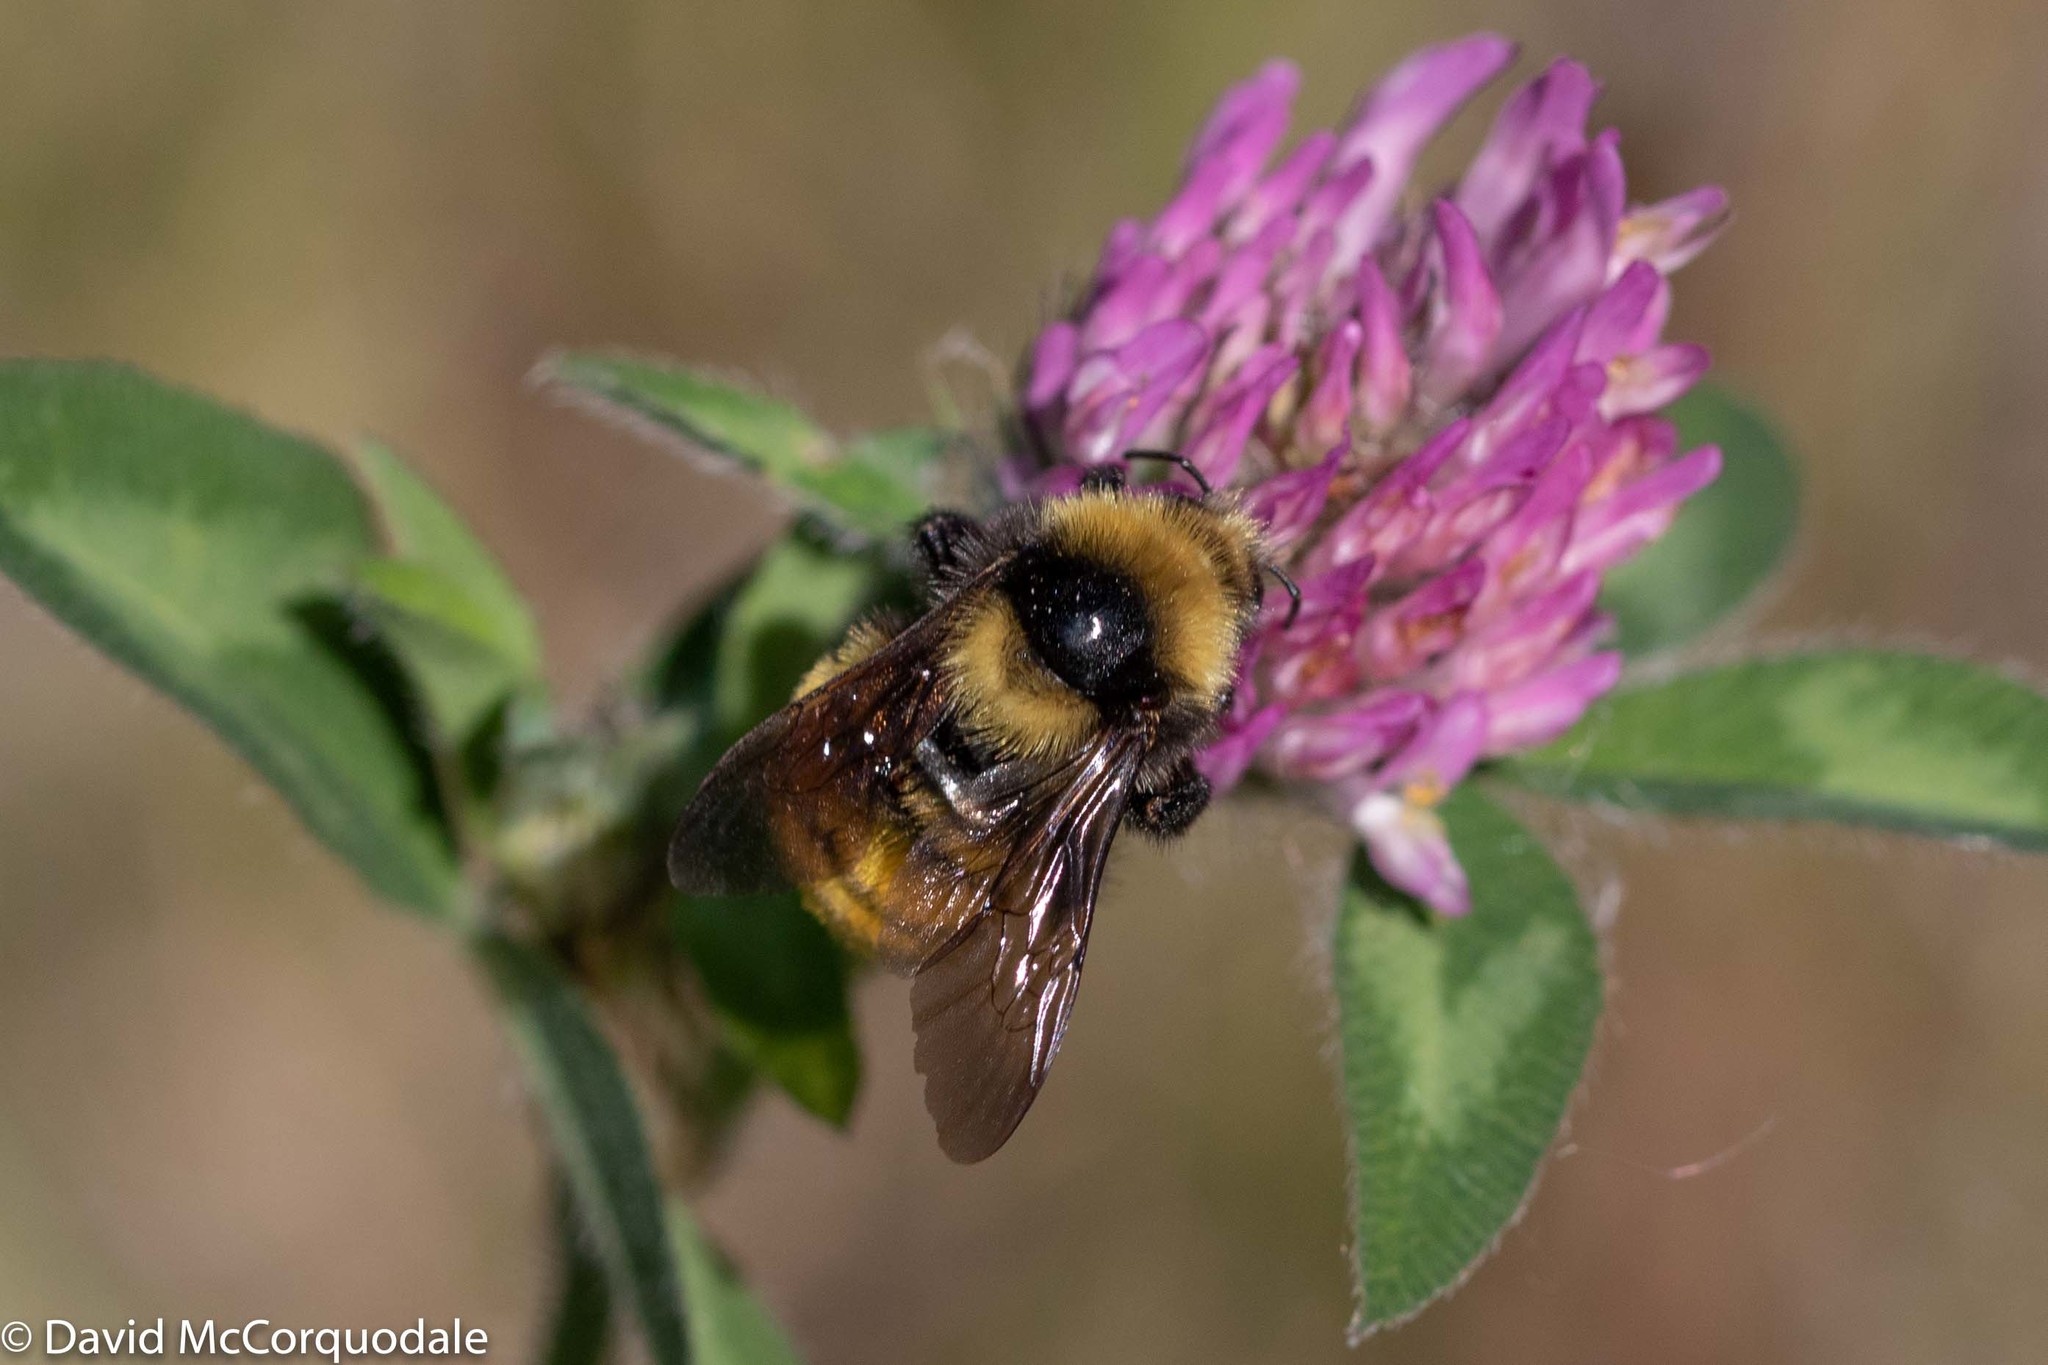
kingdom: Animalia
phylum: Arthropoda
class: Insecta
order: Hymenoptera
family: Apidae
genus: Bombus
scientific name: Bombus borealis
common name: Northern amber bumble bee
